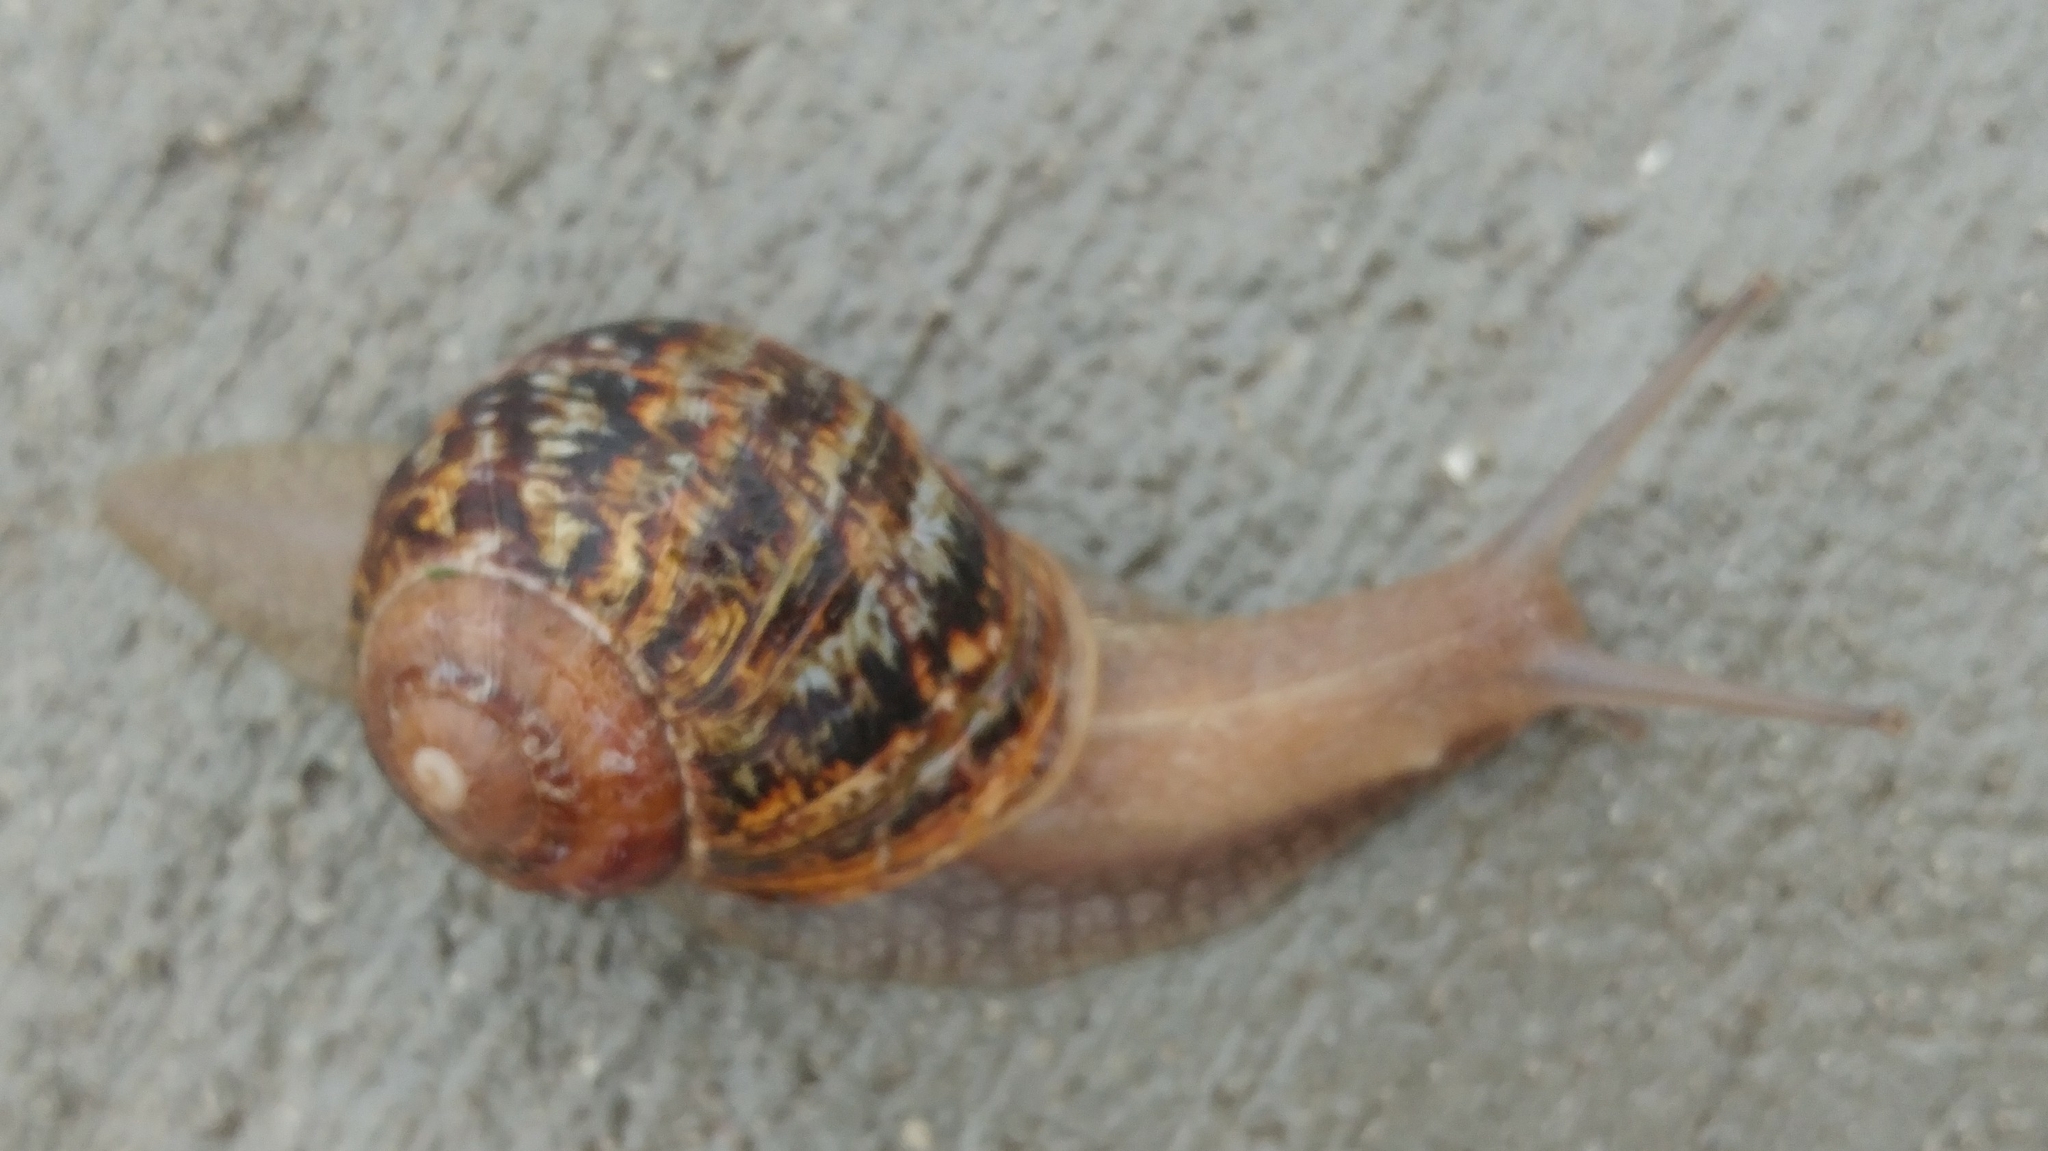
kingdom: Animalia
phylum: Mollusca
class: Gastropoda
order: Stylommatophora
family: Helicidae
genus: Cornu
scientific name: Cornu aspersum
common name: Brown garden snail
